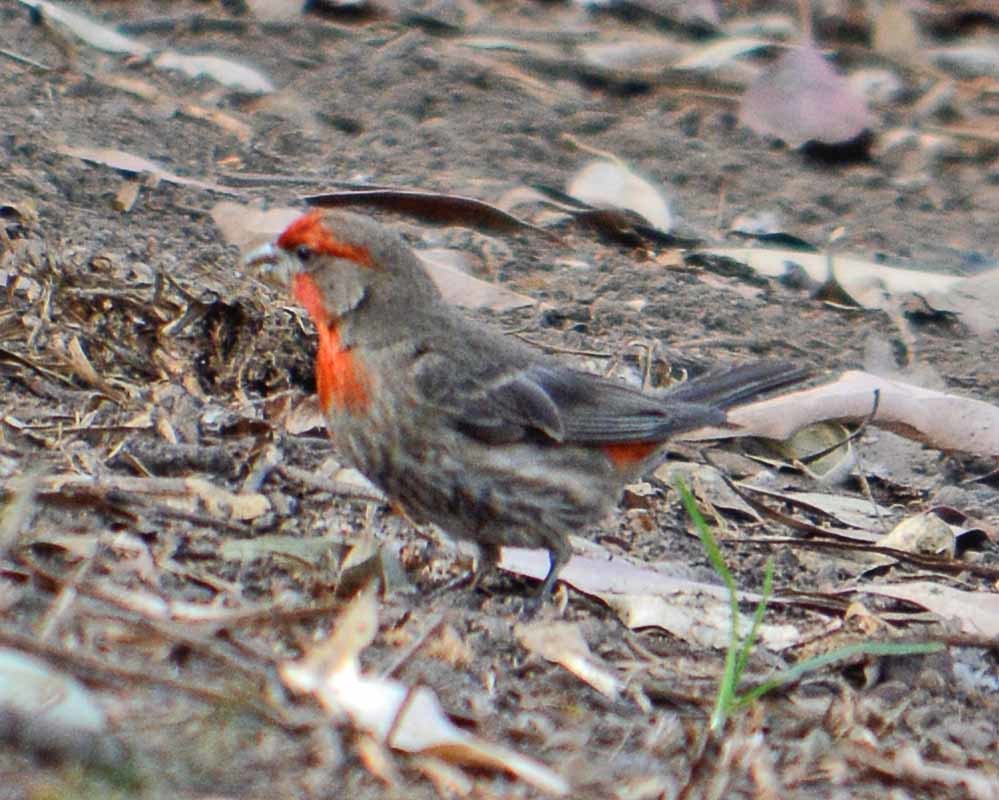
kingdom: Animalia
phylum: Chordata
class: Aves
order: Passeriformes
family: Fringillidae
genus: Haemorhous
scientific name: Haemorhous mexicanus
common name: House finch
